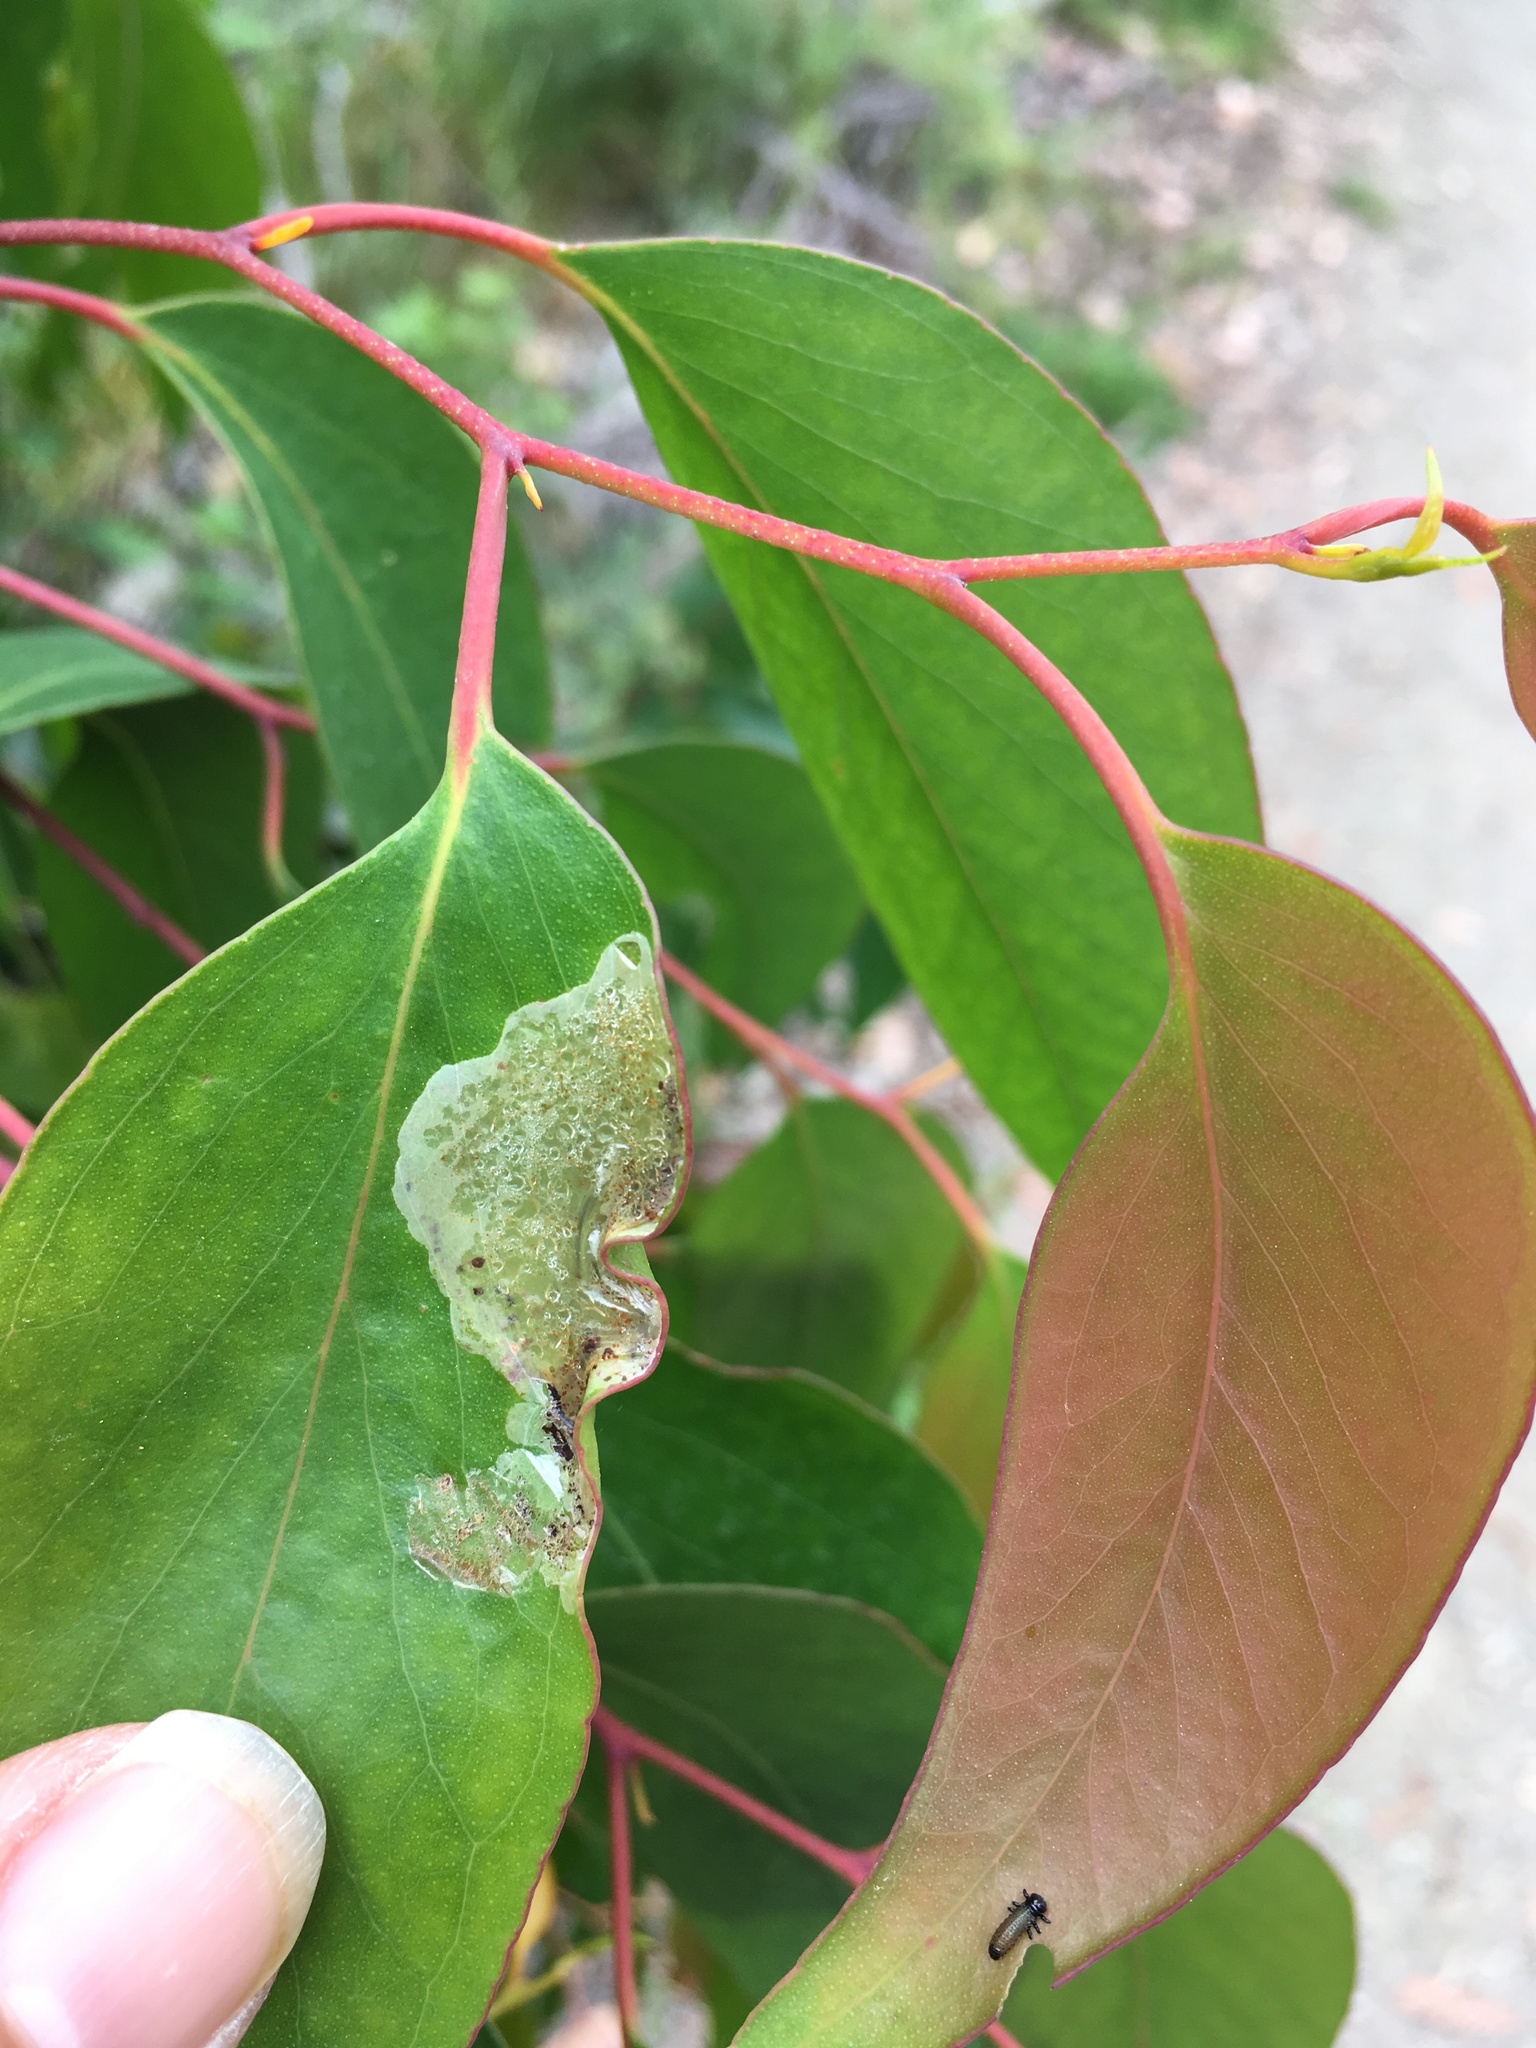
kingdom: Animalia
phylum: Arthropoda
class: Insecta
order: Hymenoptera
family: Pergidae
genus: Phylacteophaga
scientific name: Phylacteophaga froggatti
